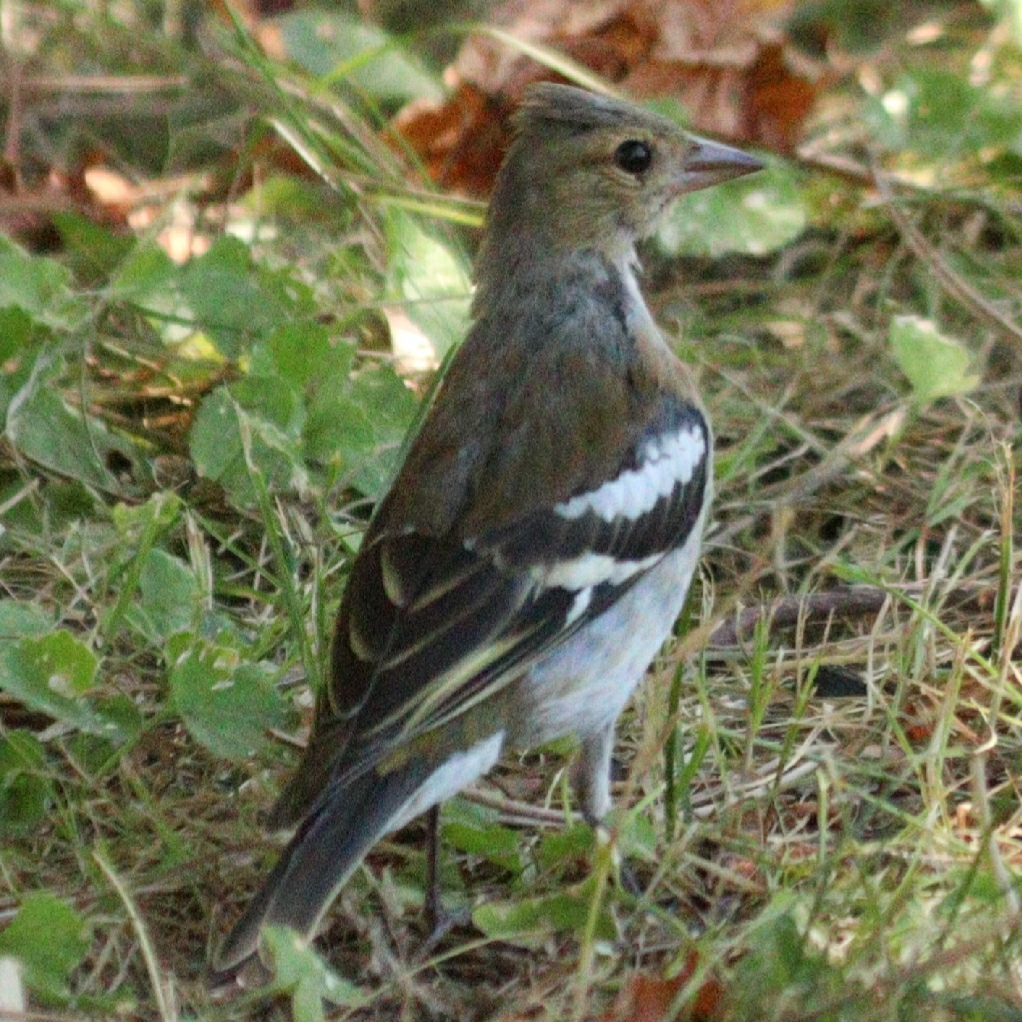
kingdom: Animalia
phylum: Chordata
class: Aves
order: Passeriformes
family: Fringillidae
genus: Fringilla
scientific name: Fringilla coelebs
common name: Common chaffinch
